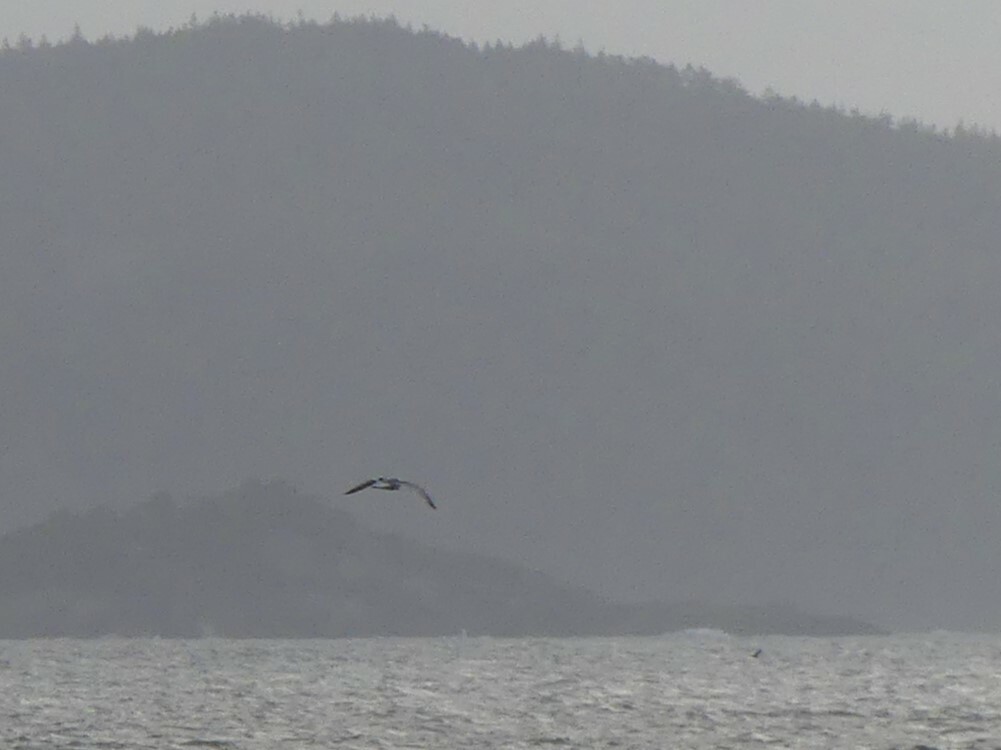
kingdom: Animalia
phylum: Chordata
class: Aves
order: Charadriiformes
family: Laridae
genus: Rissa
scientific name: Rissa tridactyla
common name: Black-legged kittiwake
